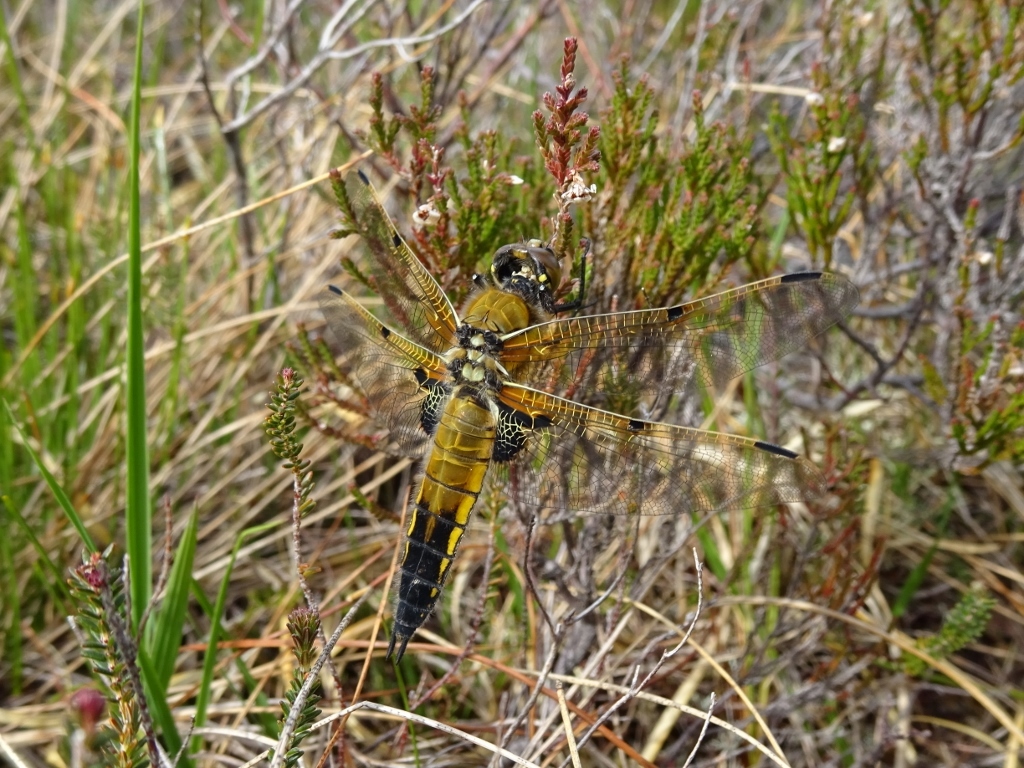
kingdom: Animalia
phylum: Arthropoda
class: Insecta
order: Odonata
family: Libellulidae
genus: Libellula
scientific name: Libellula quadrimaculata
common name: Four-spotted chaser
